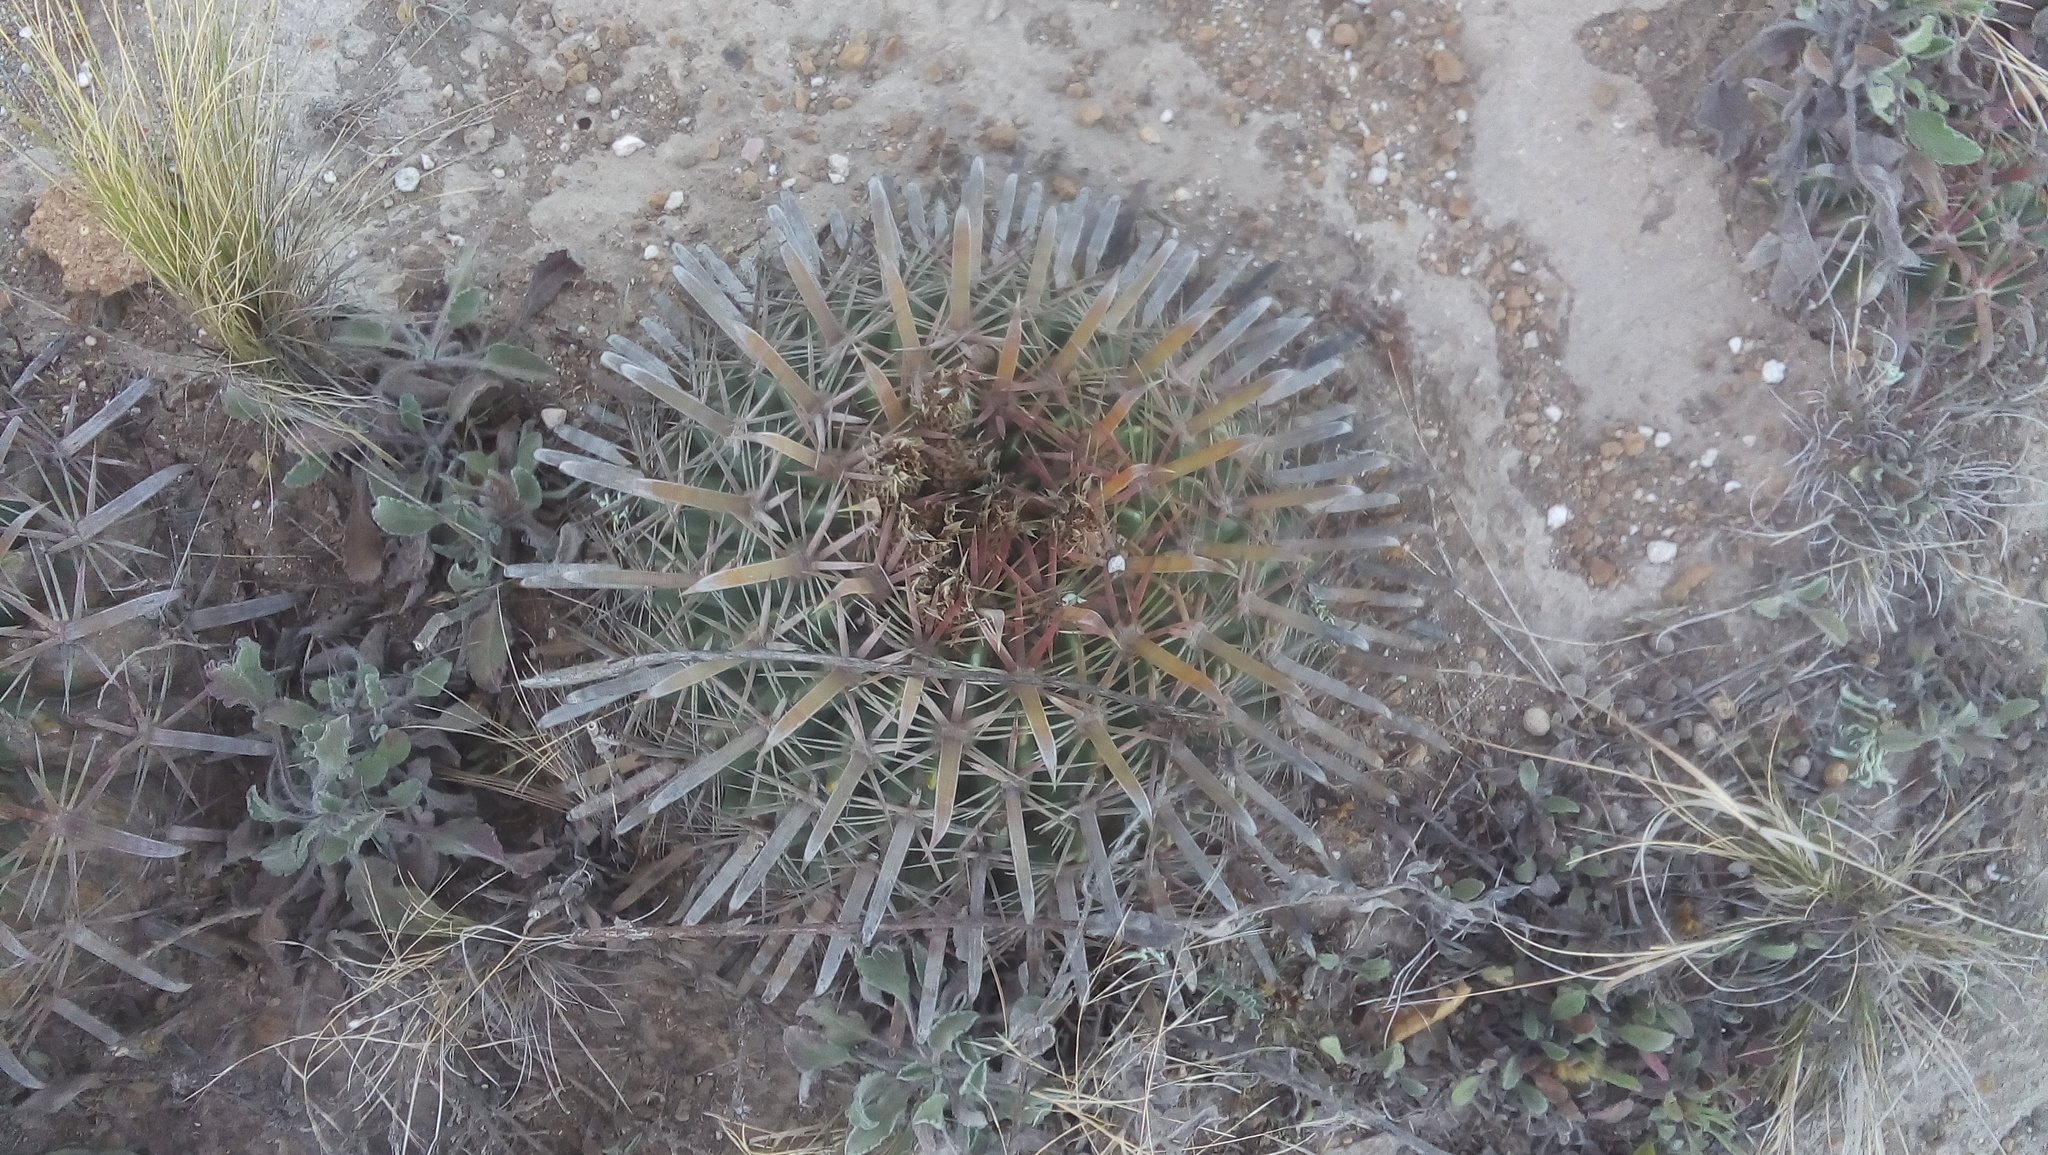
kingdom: Plantae
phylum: Tracheophyta
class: Magnoliopsida
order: Caryophyllales
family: Cactaceae
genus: Ferocactus
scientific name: Ferocactus latispinus
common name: Devil's-tongue cactus
